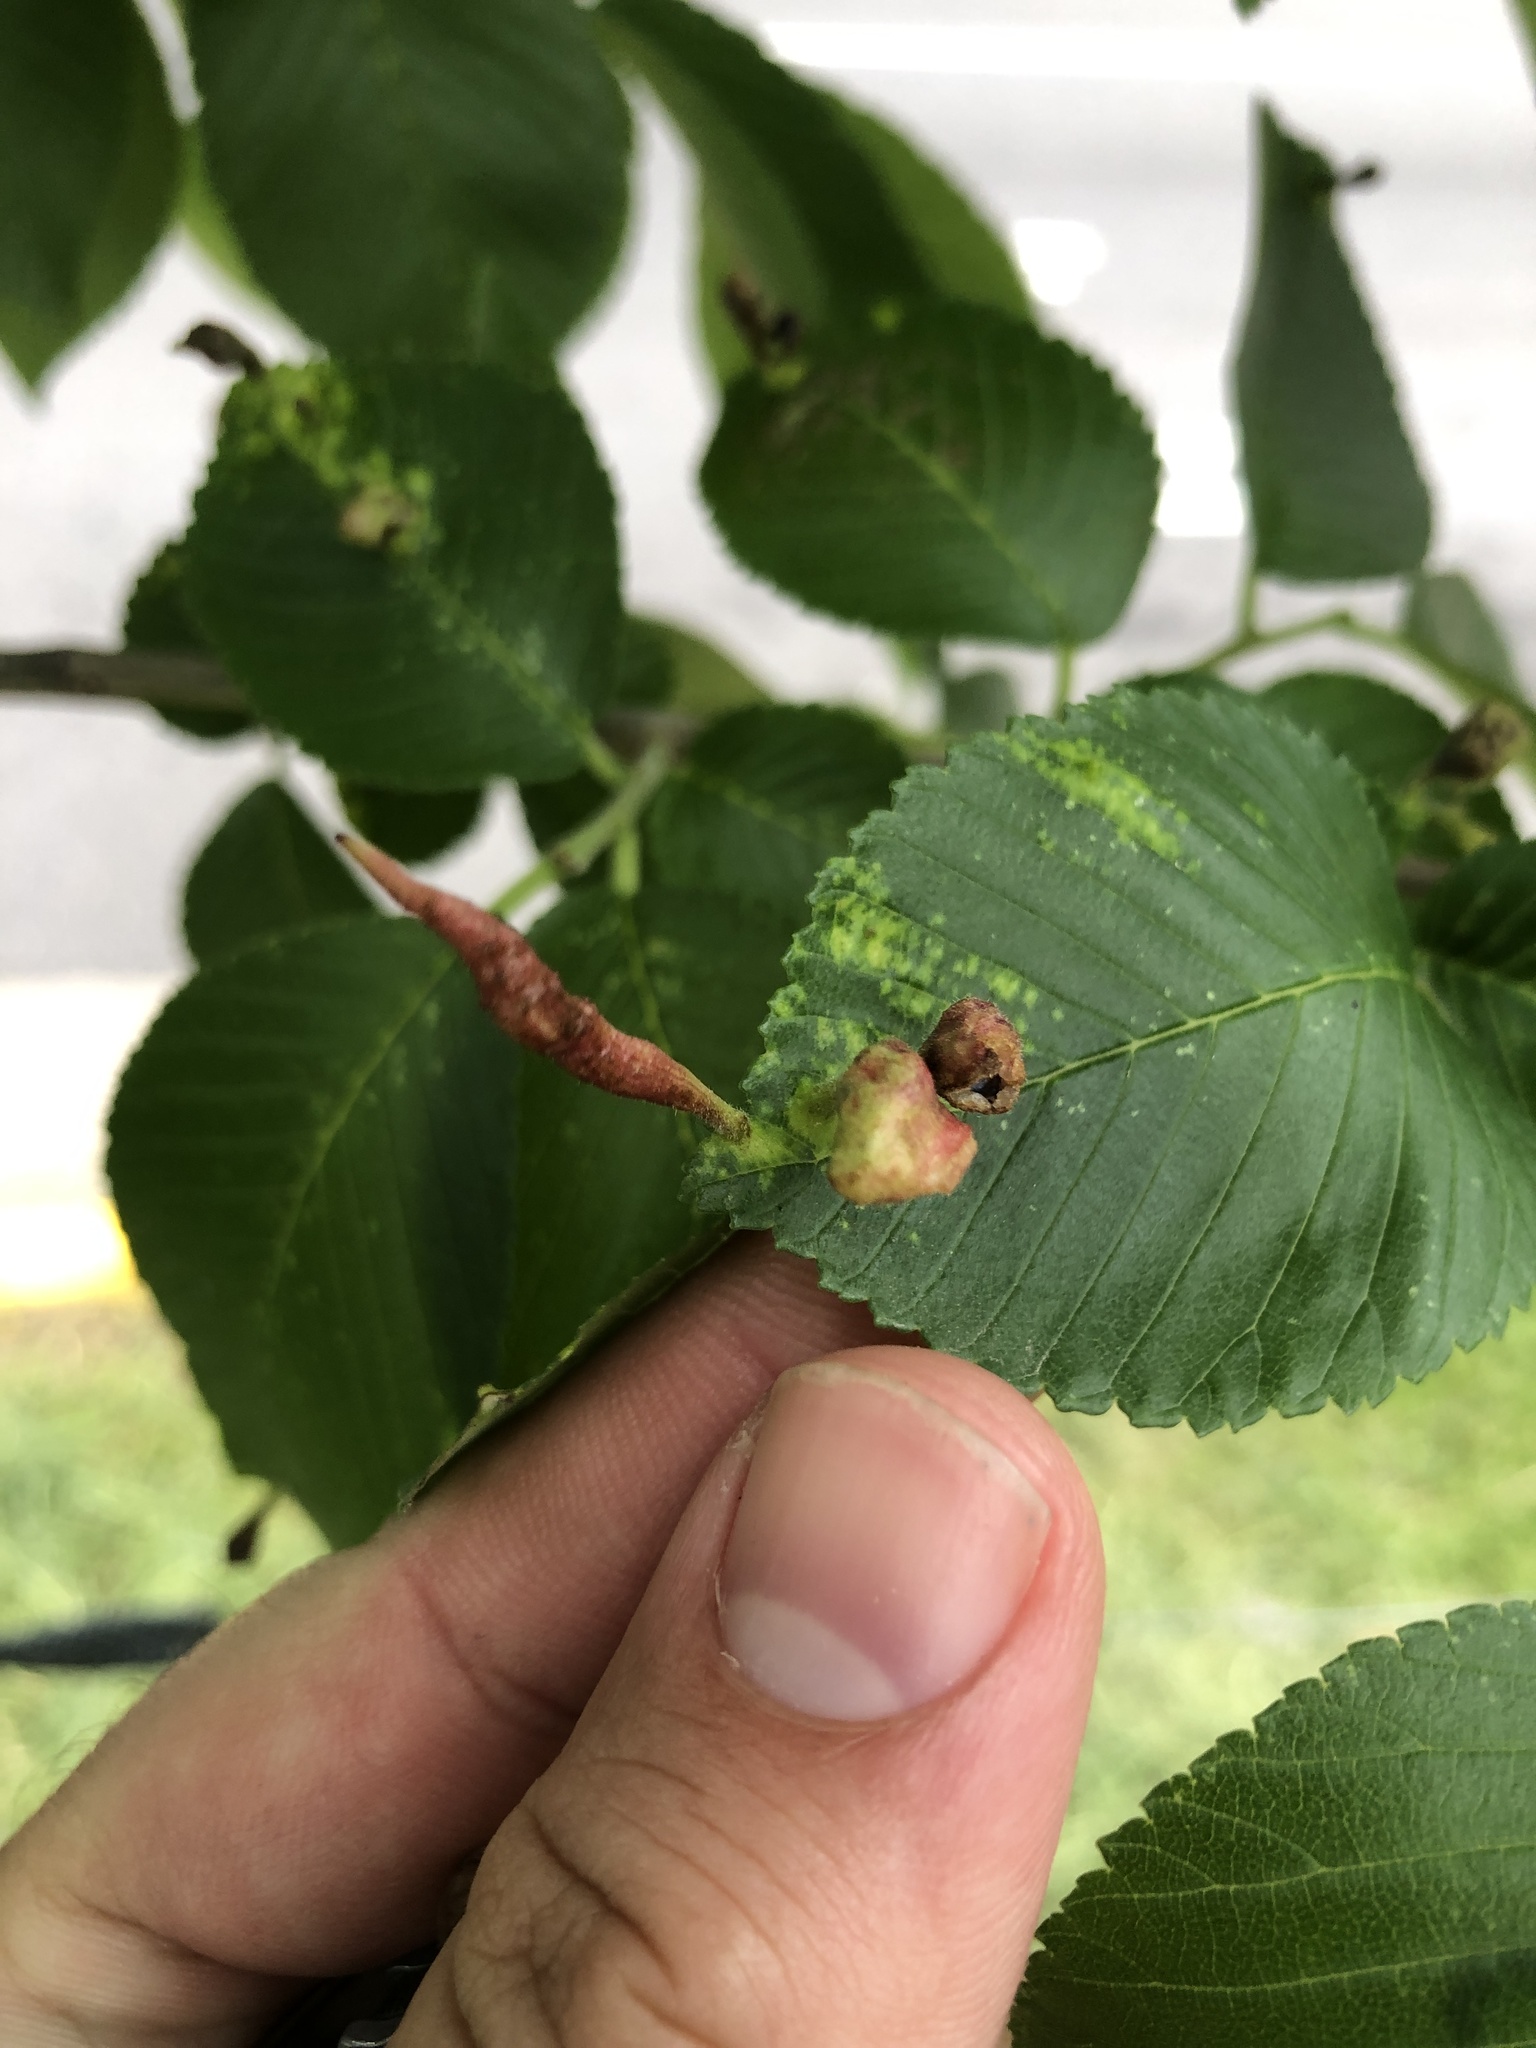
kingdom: Animalia
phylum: Arthropoda
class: Insecta
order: Hemiptera
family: Aphididae
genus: Tetraneura
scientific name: Tetraneura nigriabdominalis
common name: Aphid
